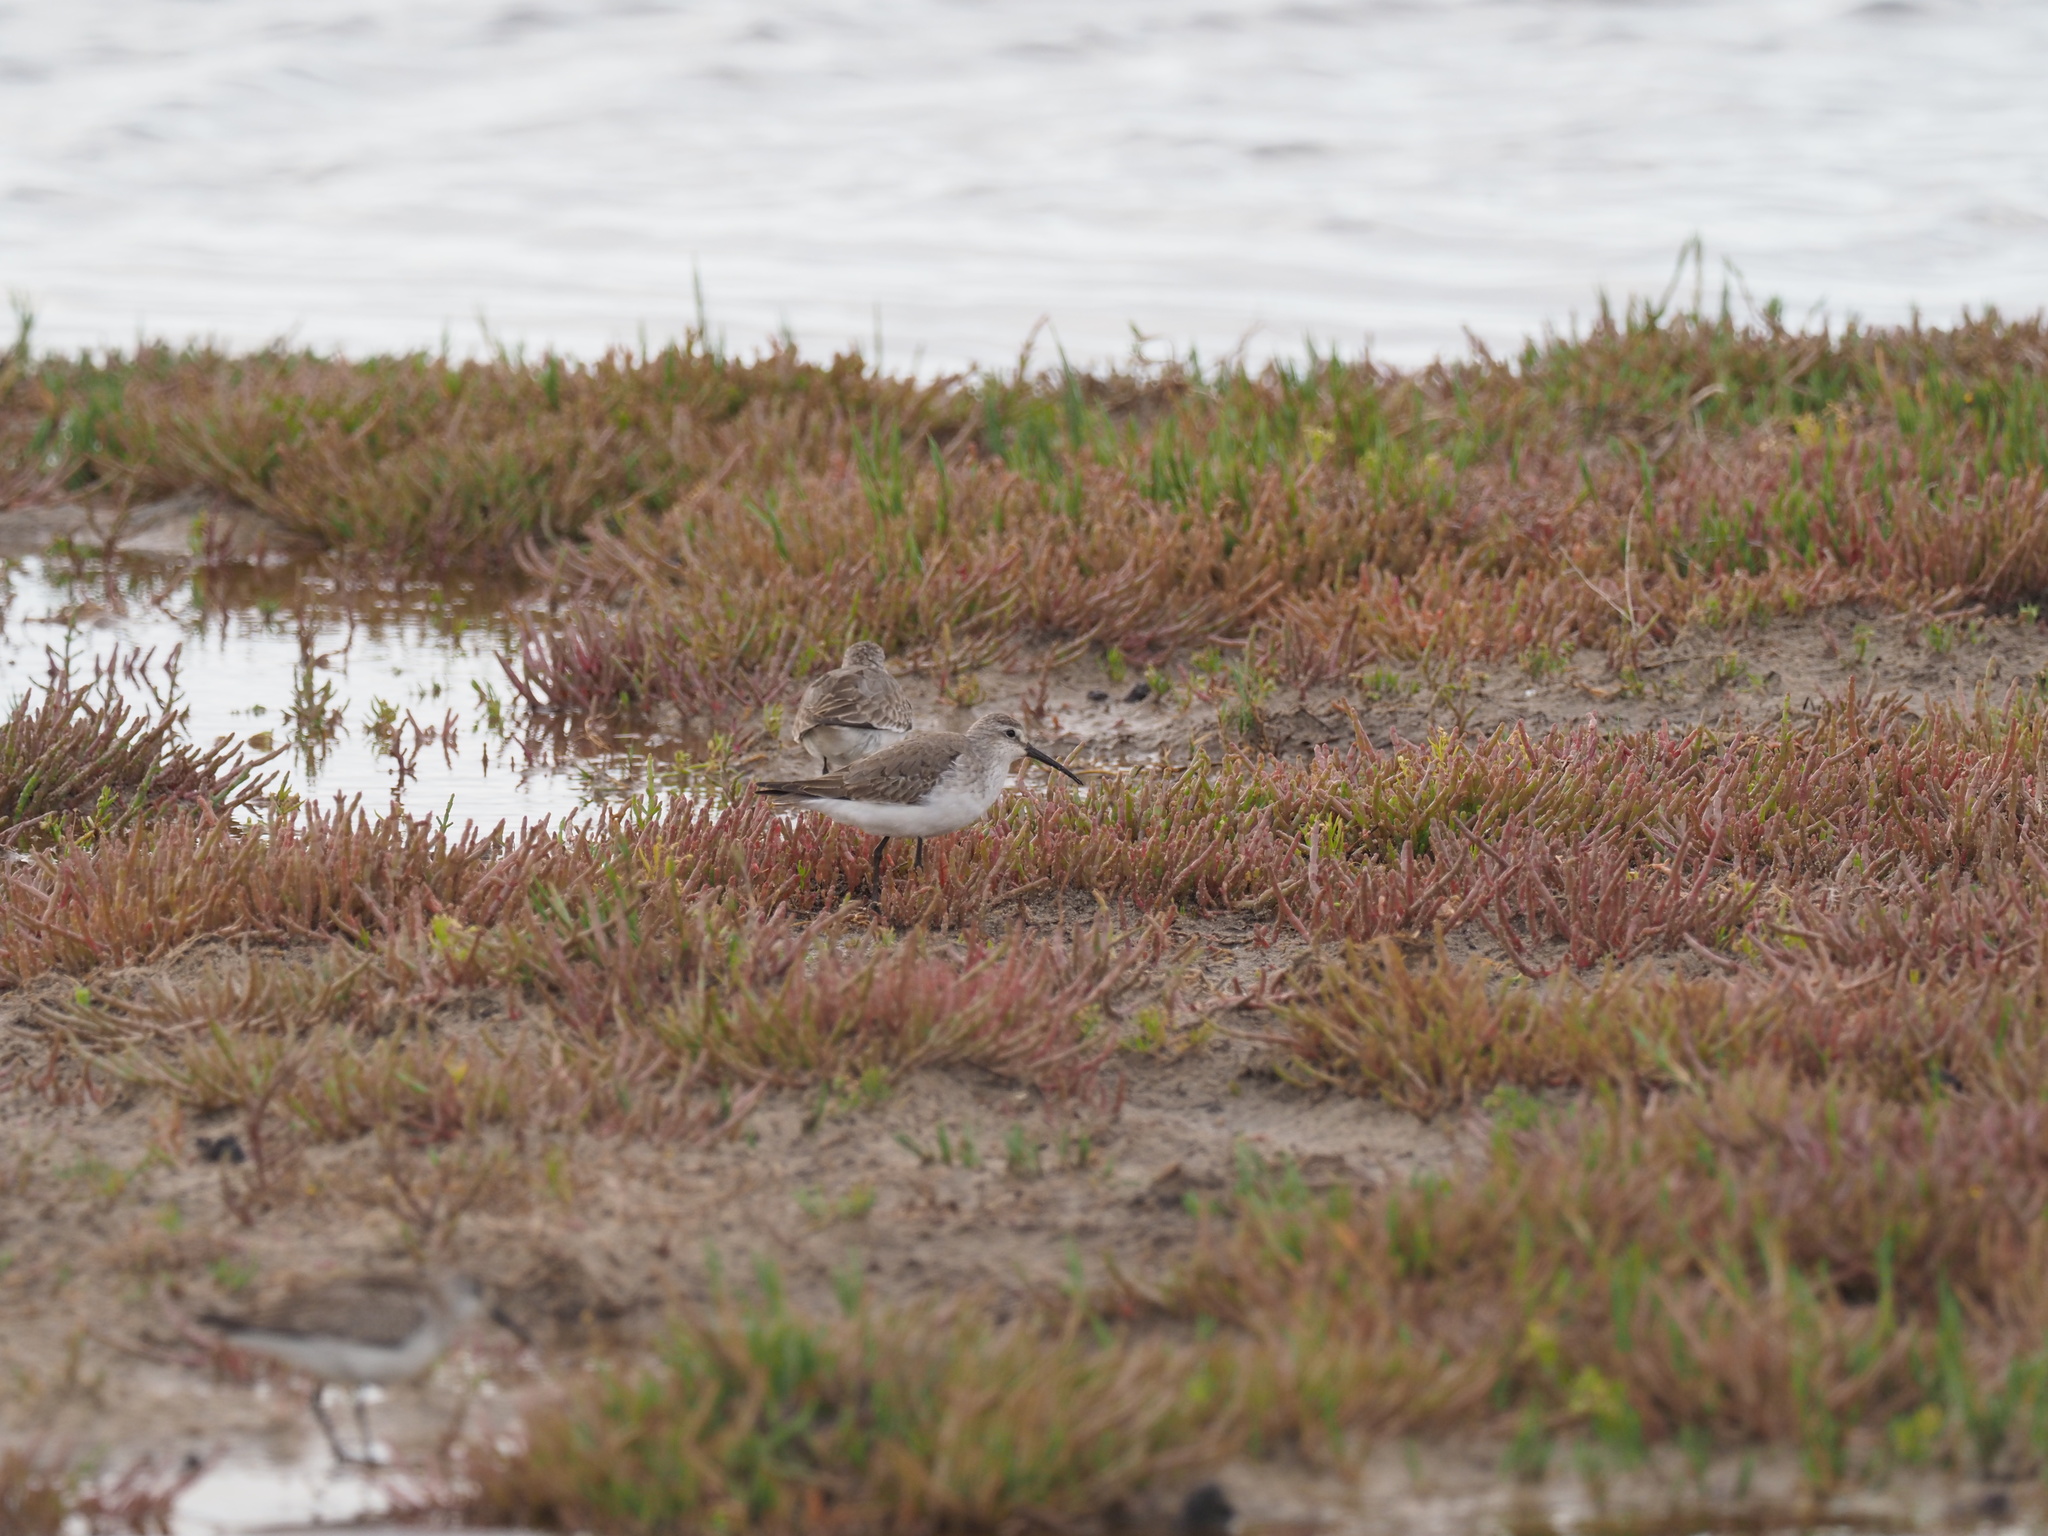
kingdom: Animalia
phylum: Chordata
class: Aves
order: Charadriiformes
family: Scolopacidae
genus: Calidris
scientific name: Calidris ferruginea
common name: Curlew sandpiper
